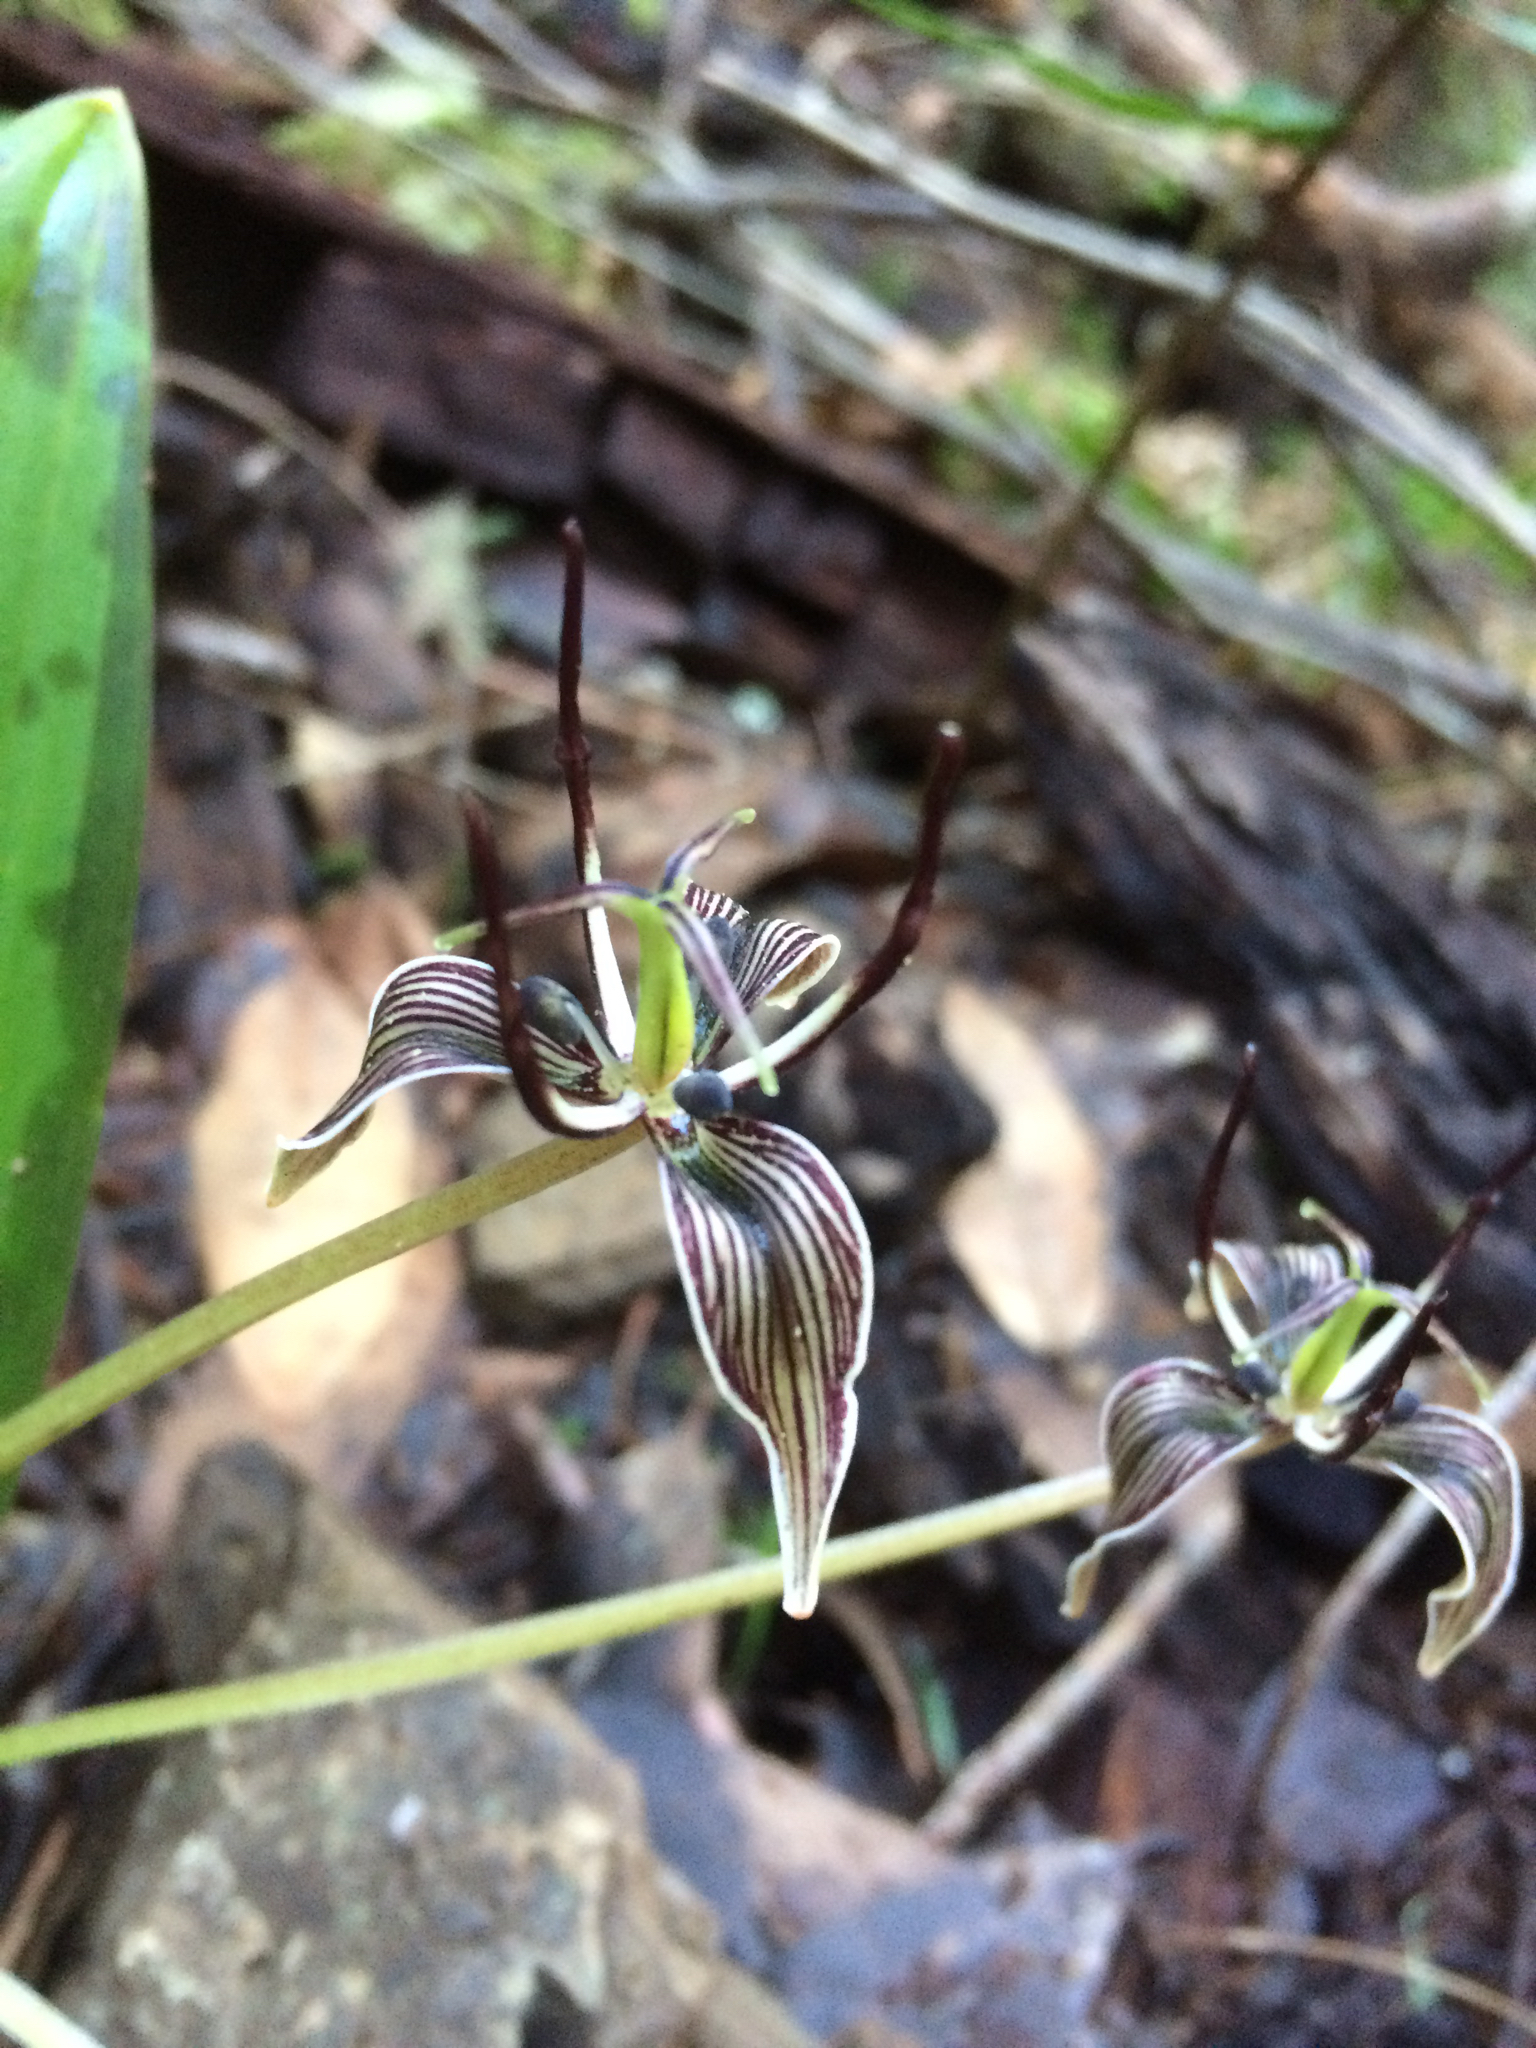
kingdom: Plantae
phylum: Tracheophyta
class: Liliopsida
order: Liliales
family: Liliaceae
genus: Scoliopus
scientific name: Scoliopus bigelovii
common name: Foetid adder's-tongue
